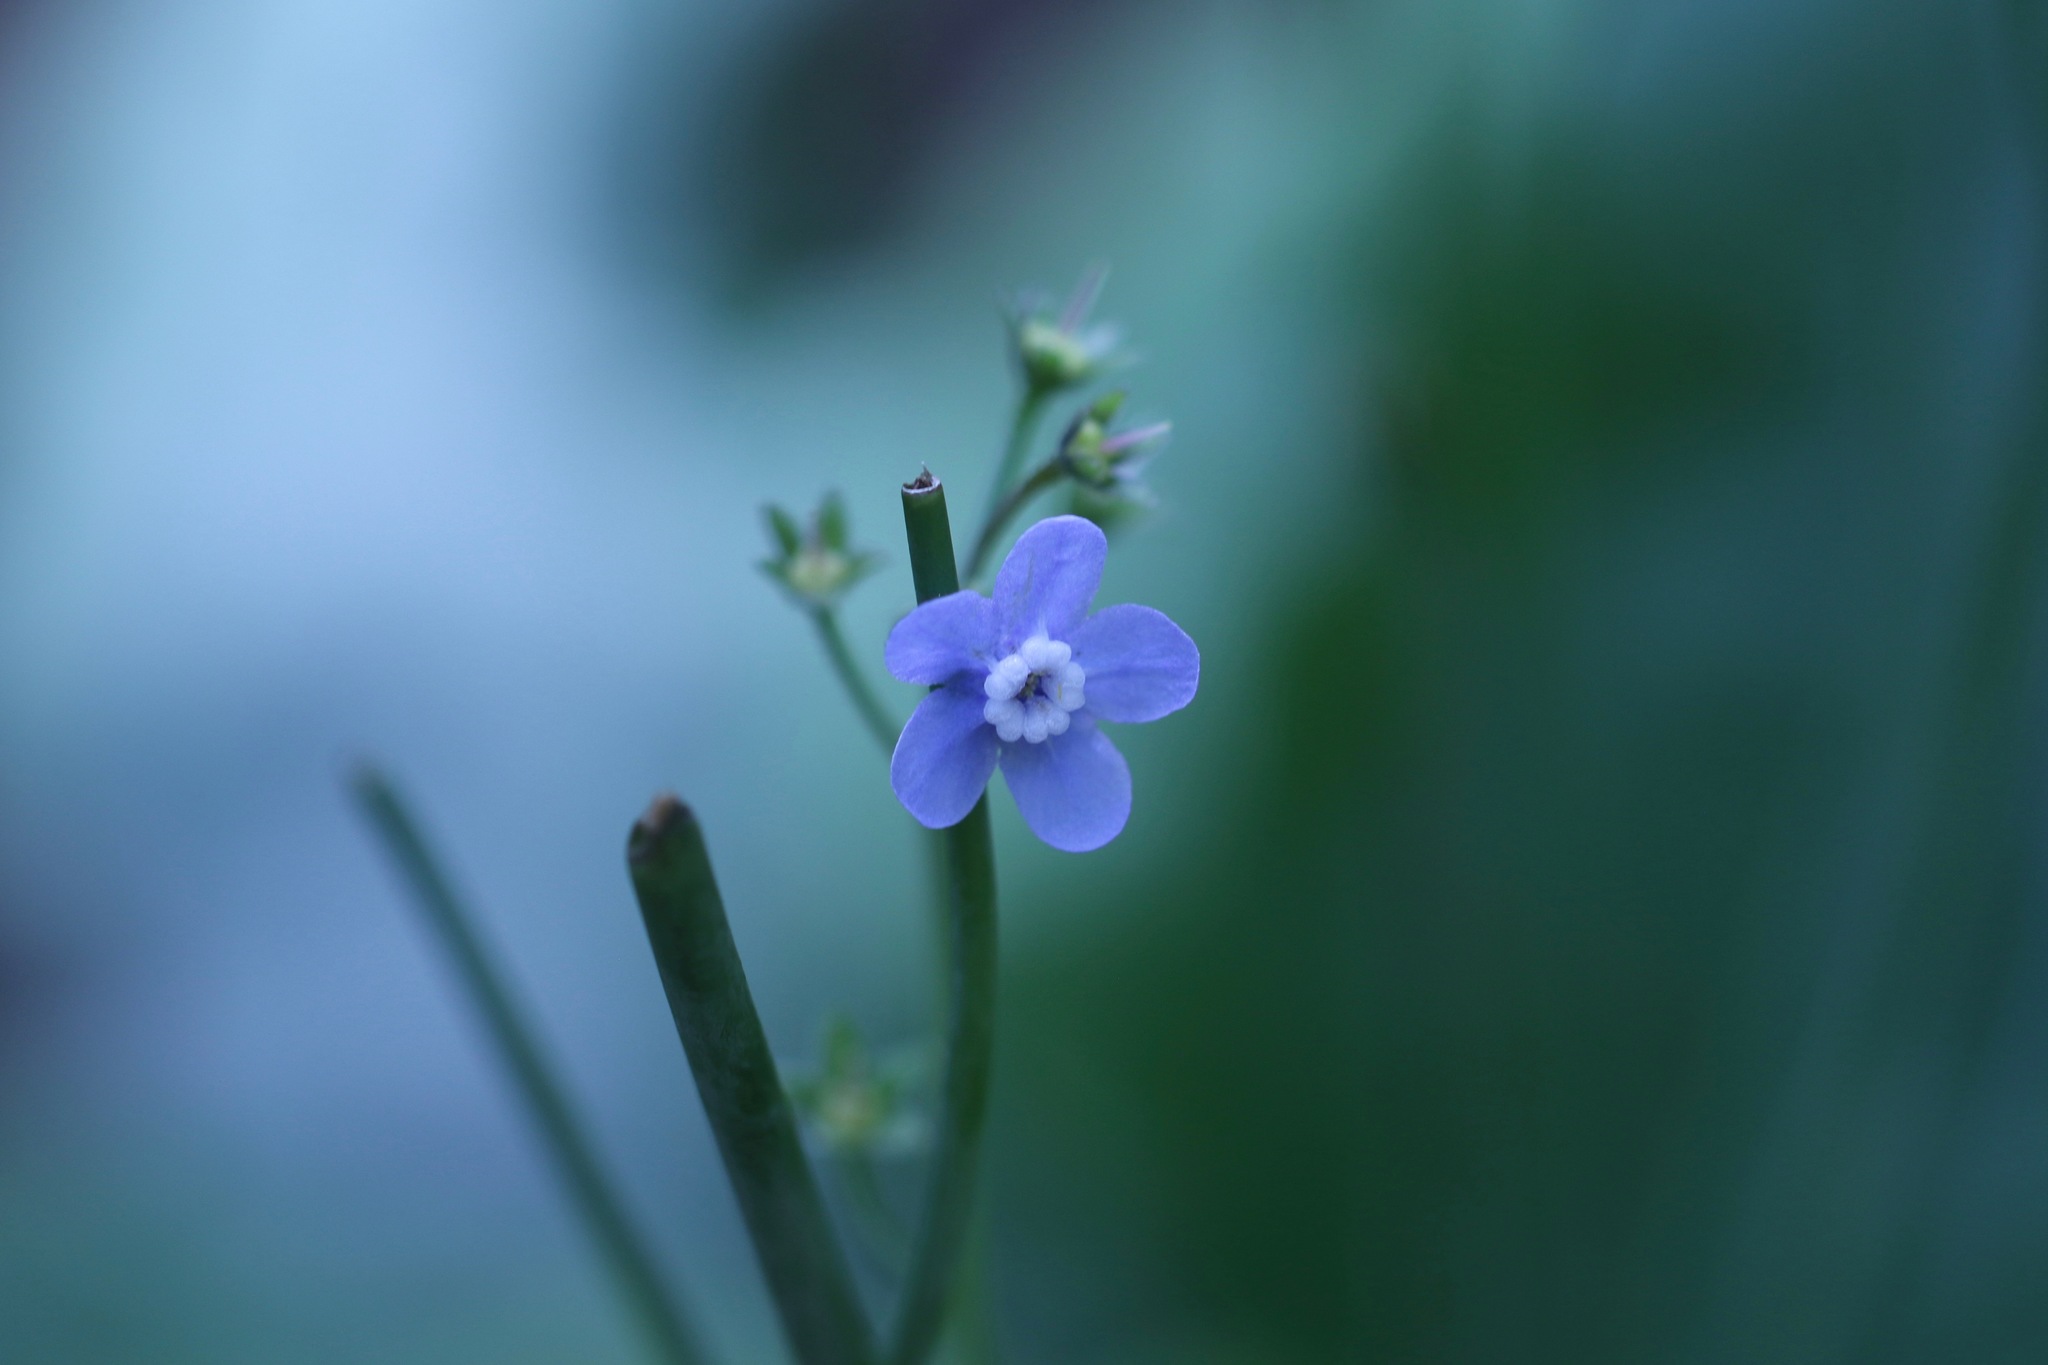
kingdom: Plantae
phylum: Tracheophyta
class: Magnoliopsida
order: Boraginales
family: Boraginaceae
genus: Adelinia
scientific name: Adelinia grande
